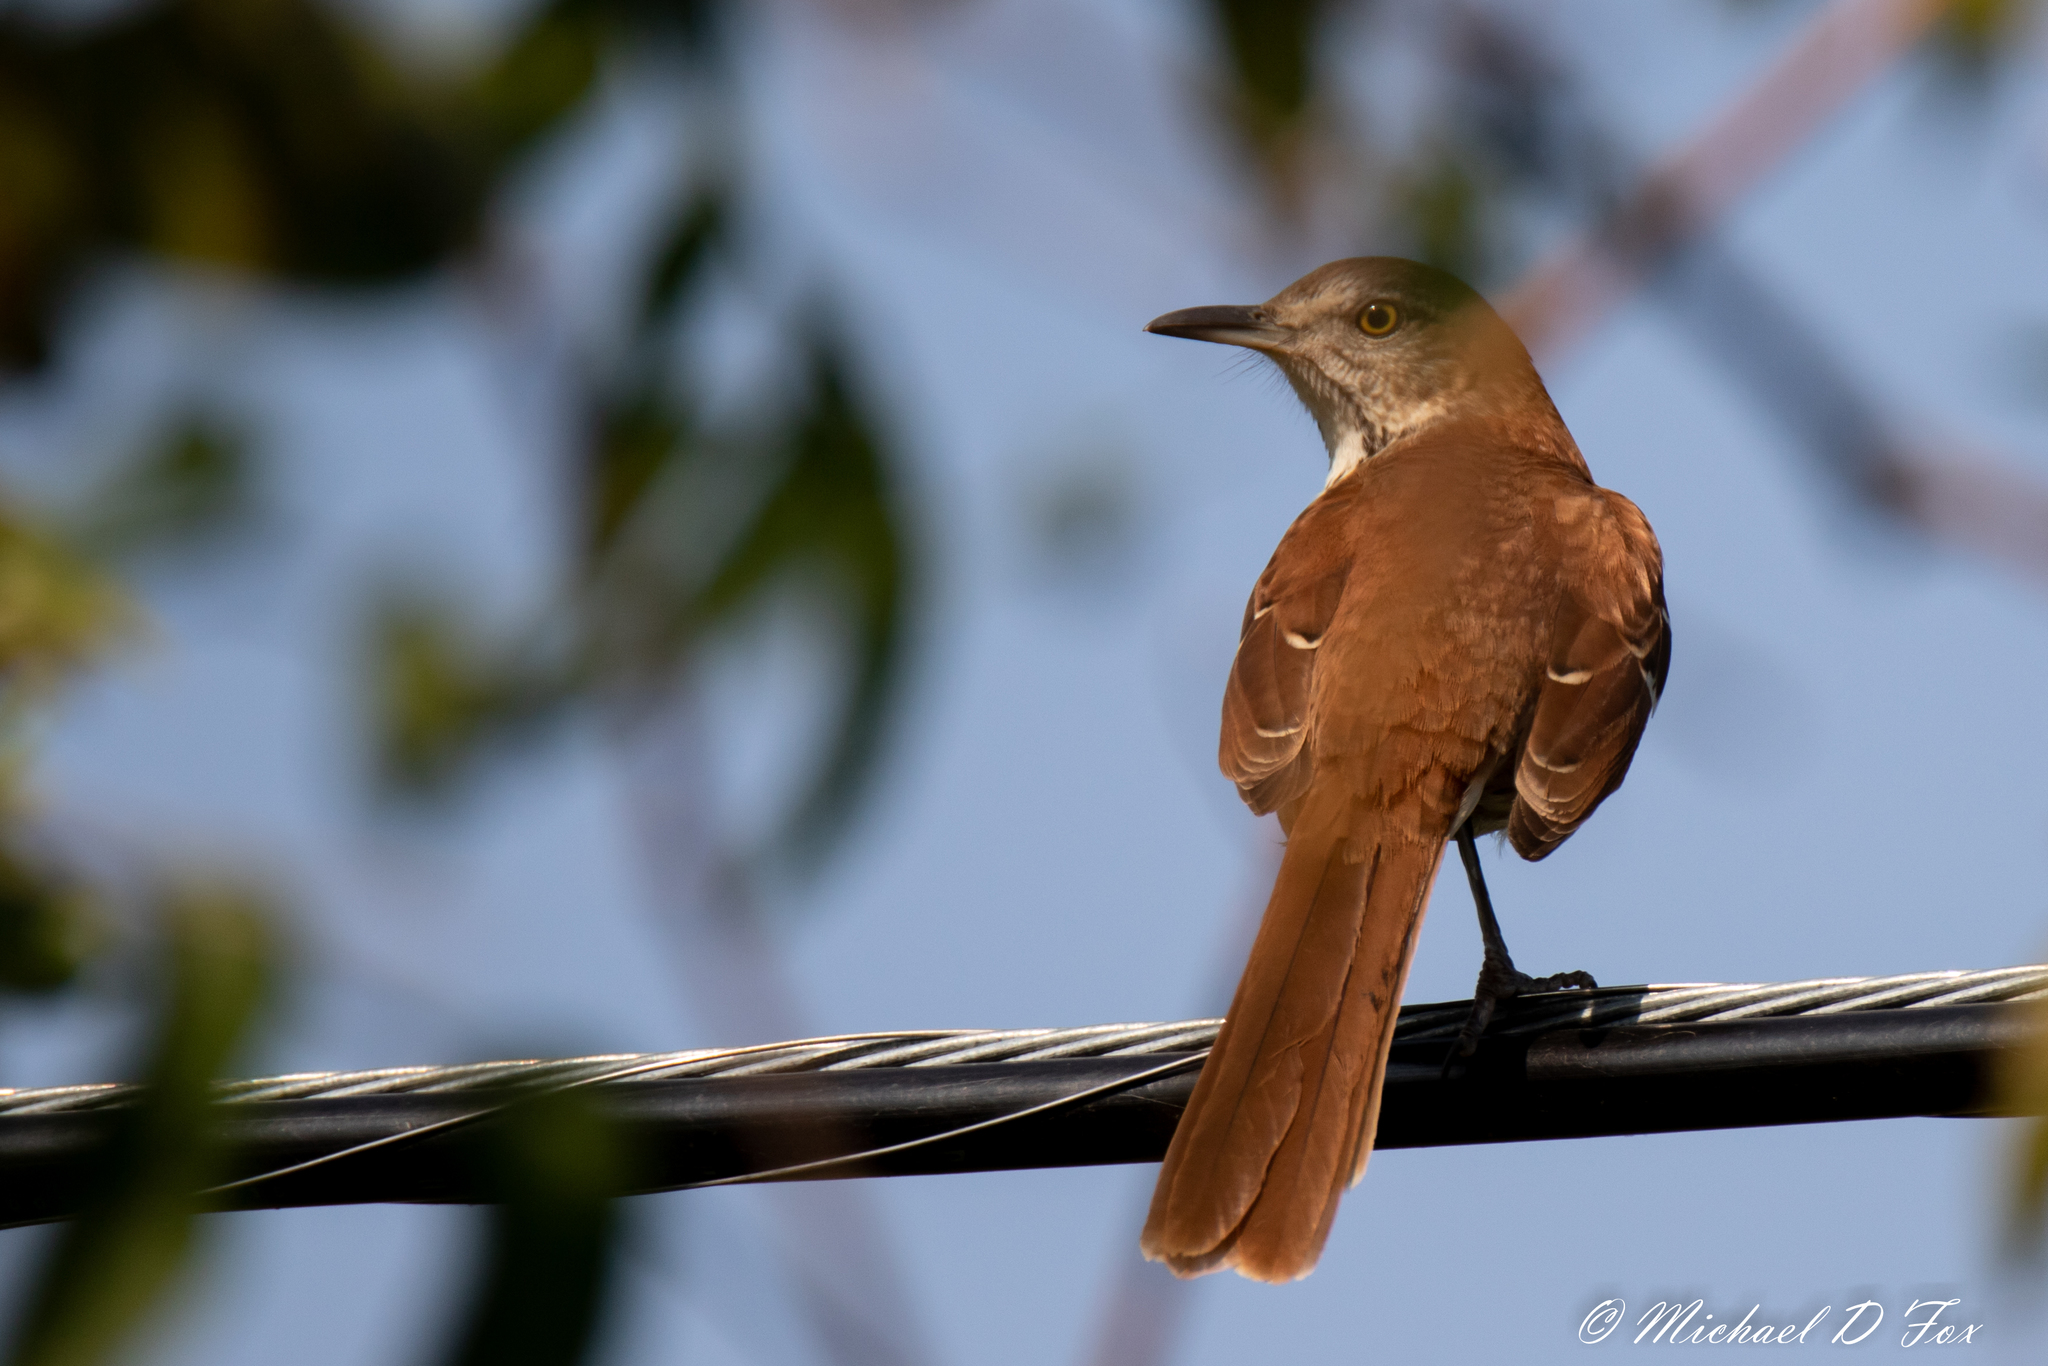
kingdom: Animalia
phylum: Chordata
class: Aves
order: Passeriformes
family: Mimidae
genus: Toxostoma
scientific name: Toxostoma rufum
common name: Brown thrasher
